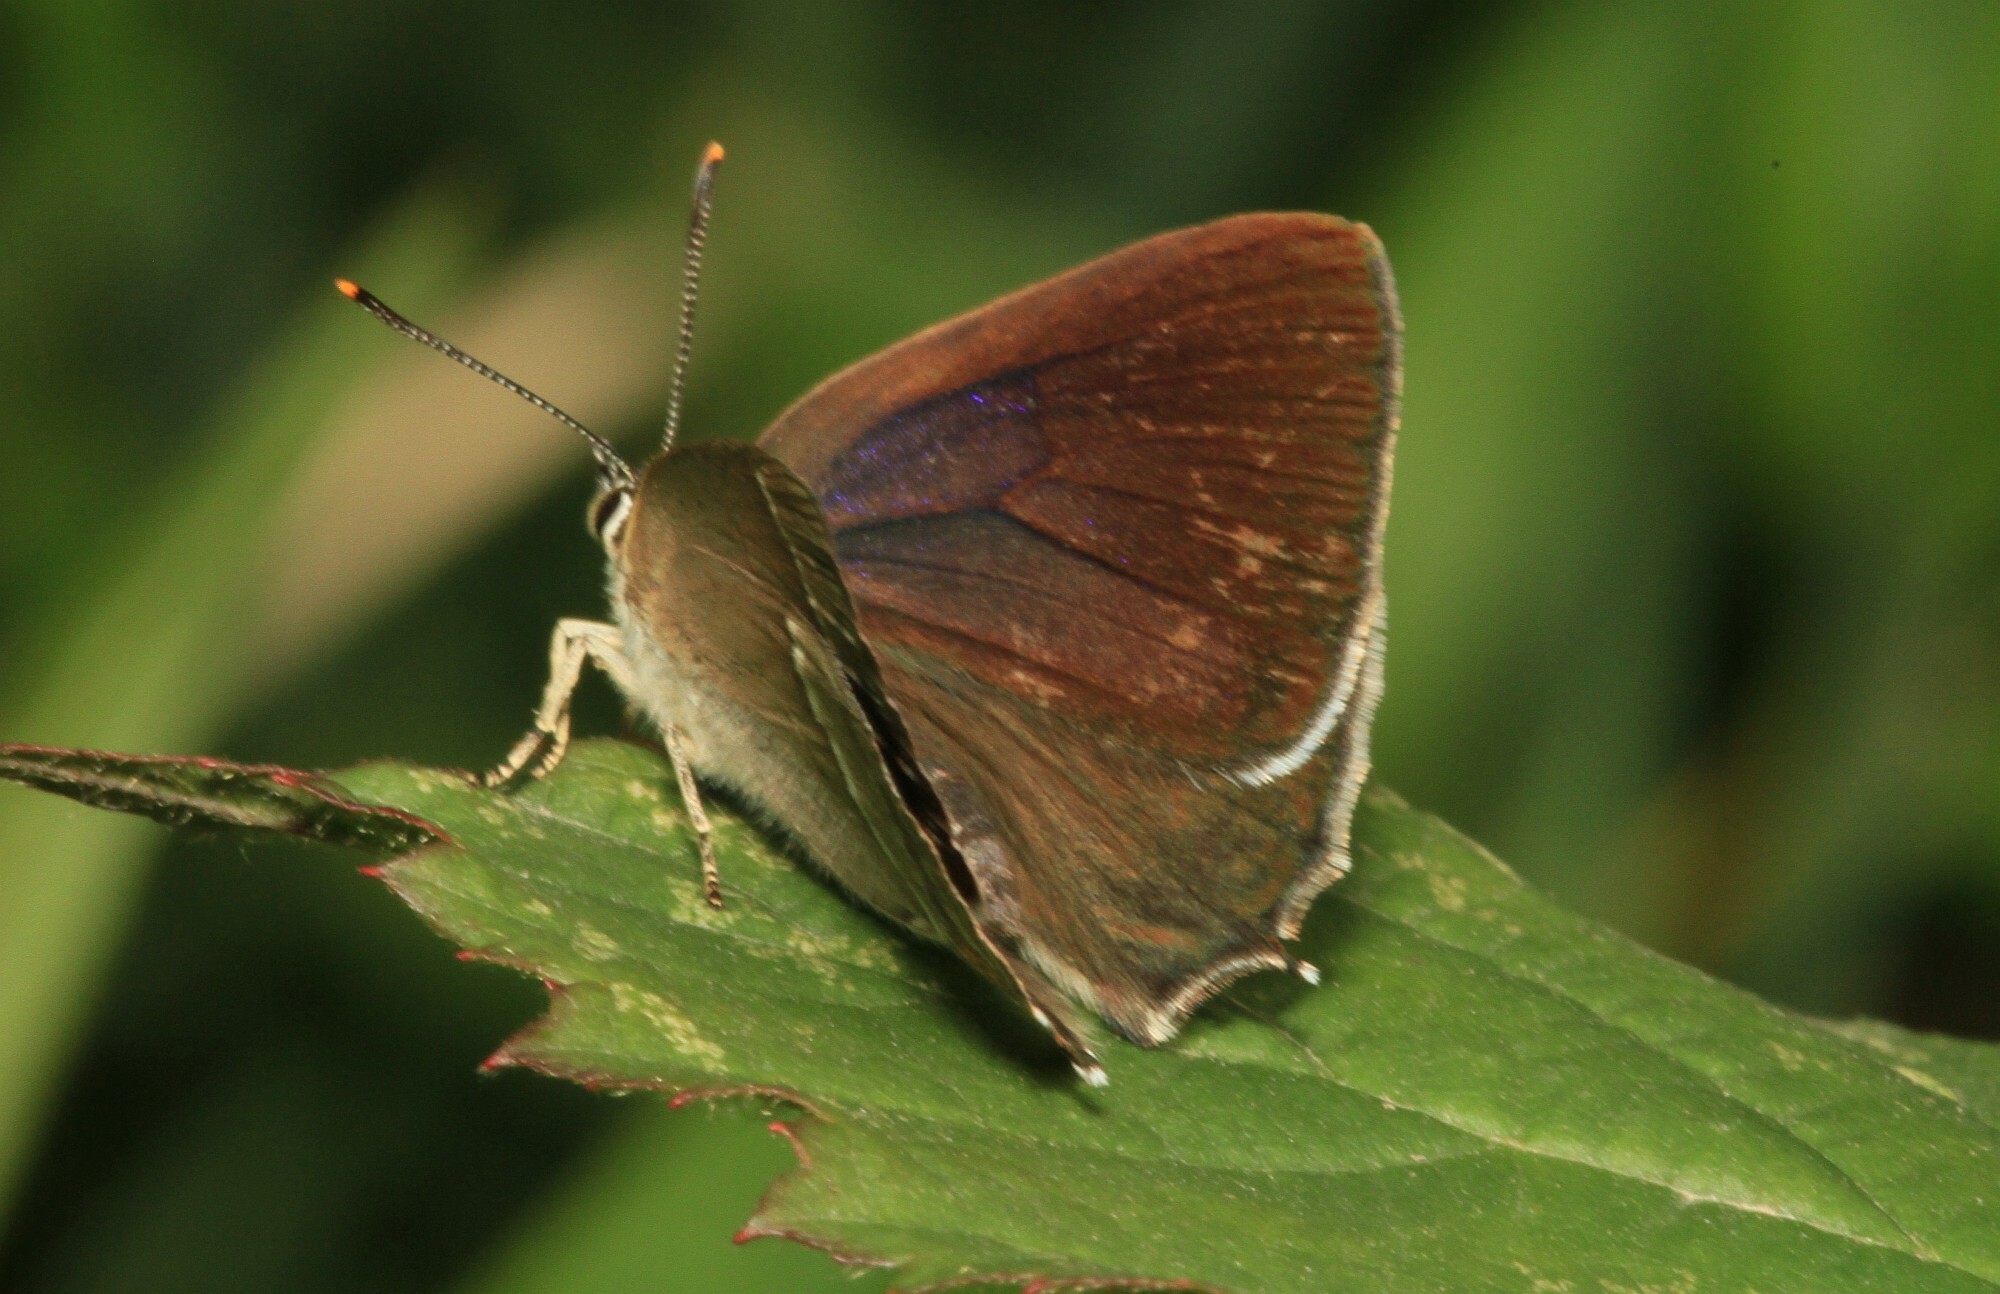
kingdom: Animalia
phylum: Arthropoda
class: Insecta
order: Lepidoptera
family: Lycaenidae
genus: Quercusia
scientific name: Quercusia quercus
